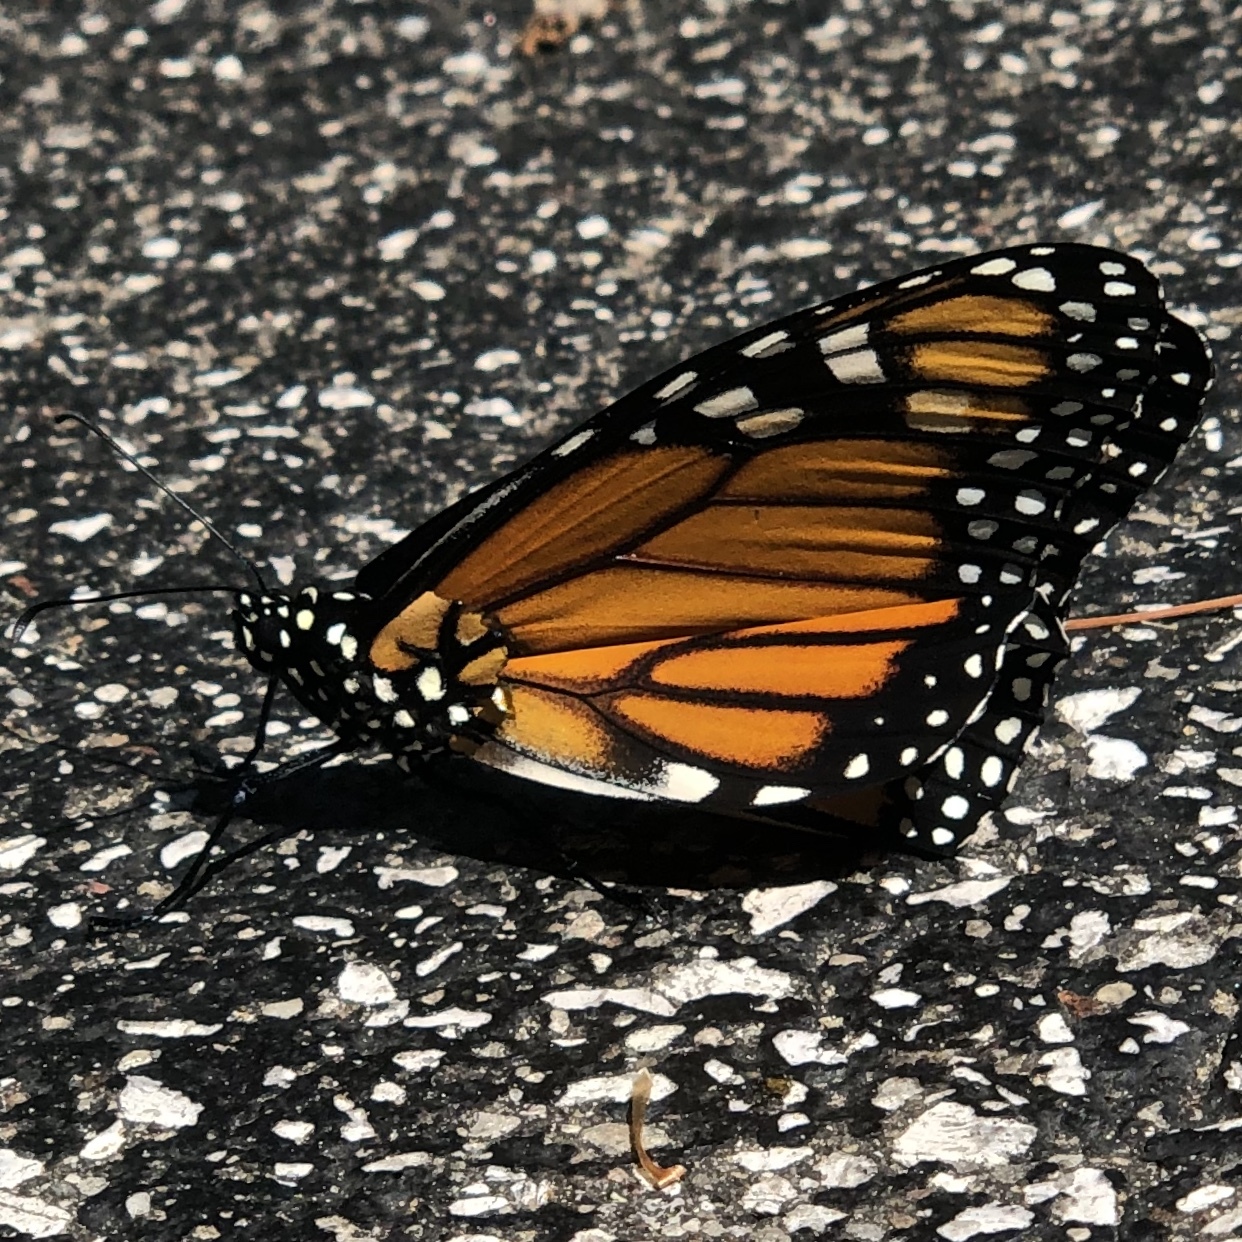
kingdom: Animalia
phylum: Arthropoda
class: Insecta
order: Lepidoptera
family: Nymphalidae
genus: Danaus
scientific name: Danaus plexippus
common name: Monarch
